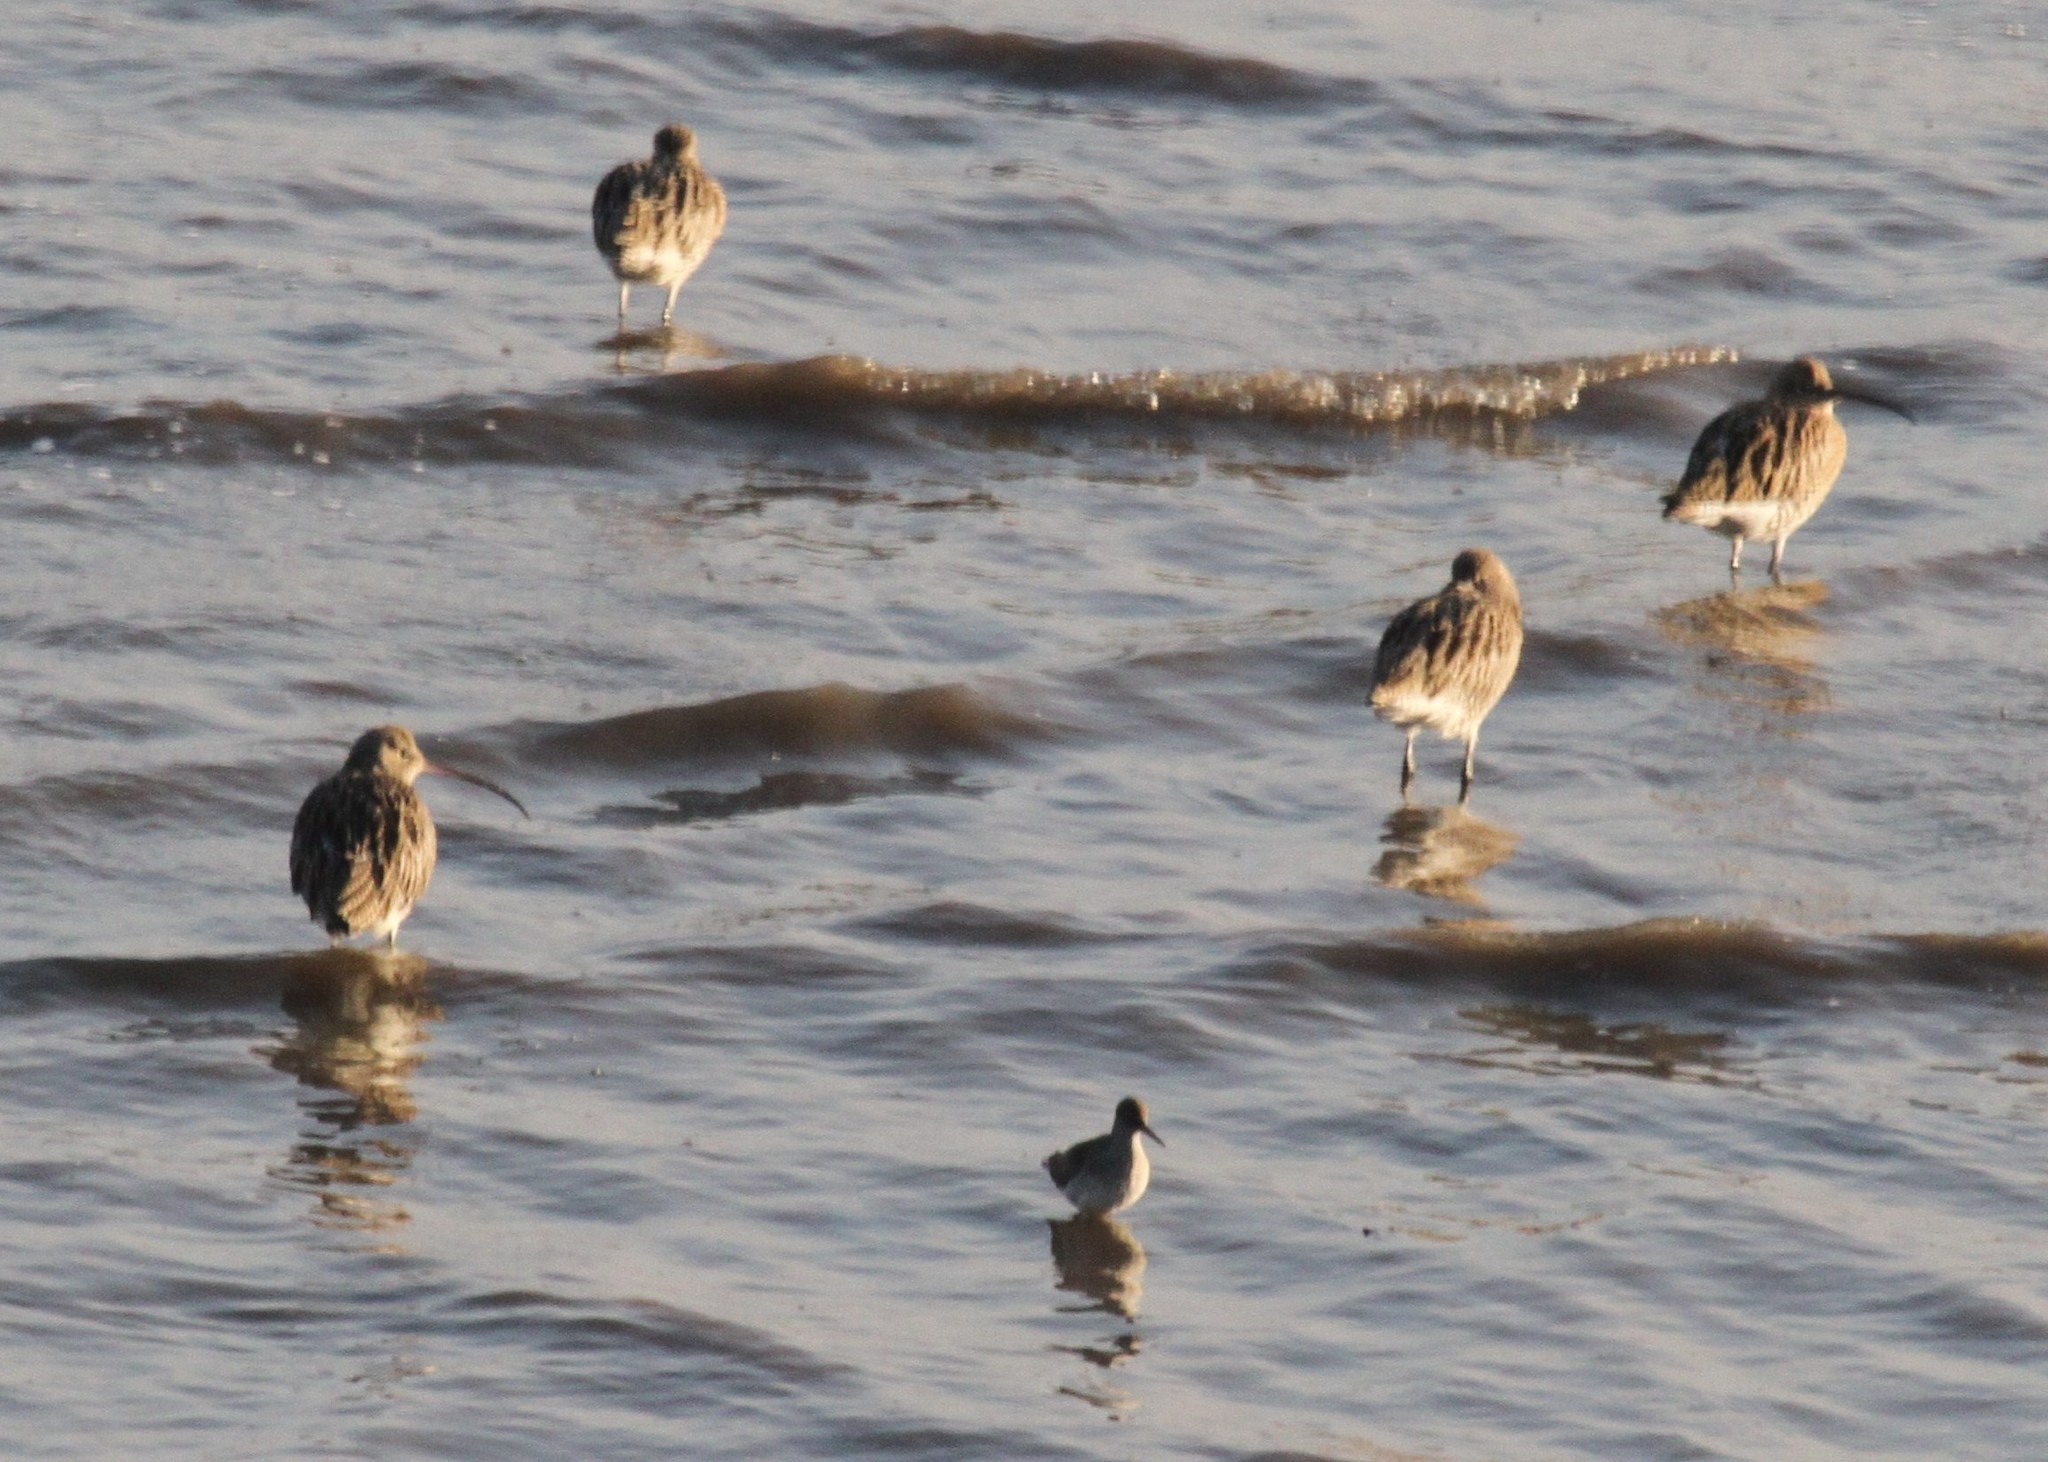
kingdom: Animalia
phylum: Chordata
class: Aves
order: Charadriiformes
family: Scolopacidae
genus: Numenius
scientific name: Numenius arquata
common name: Eurasian curlew
